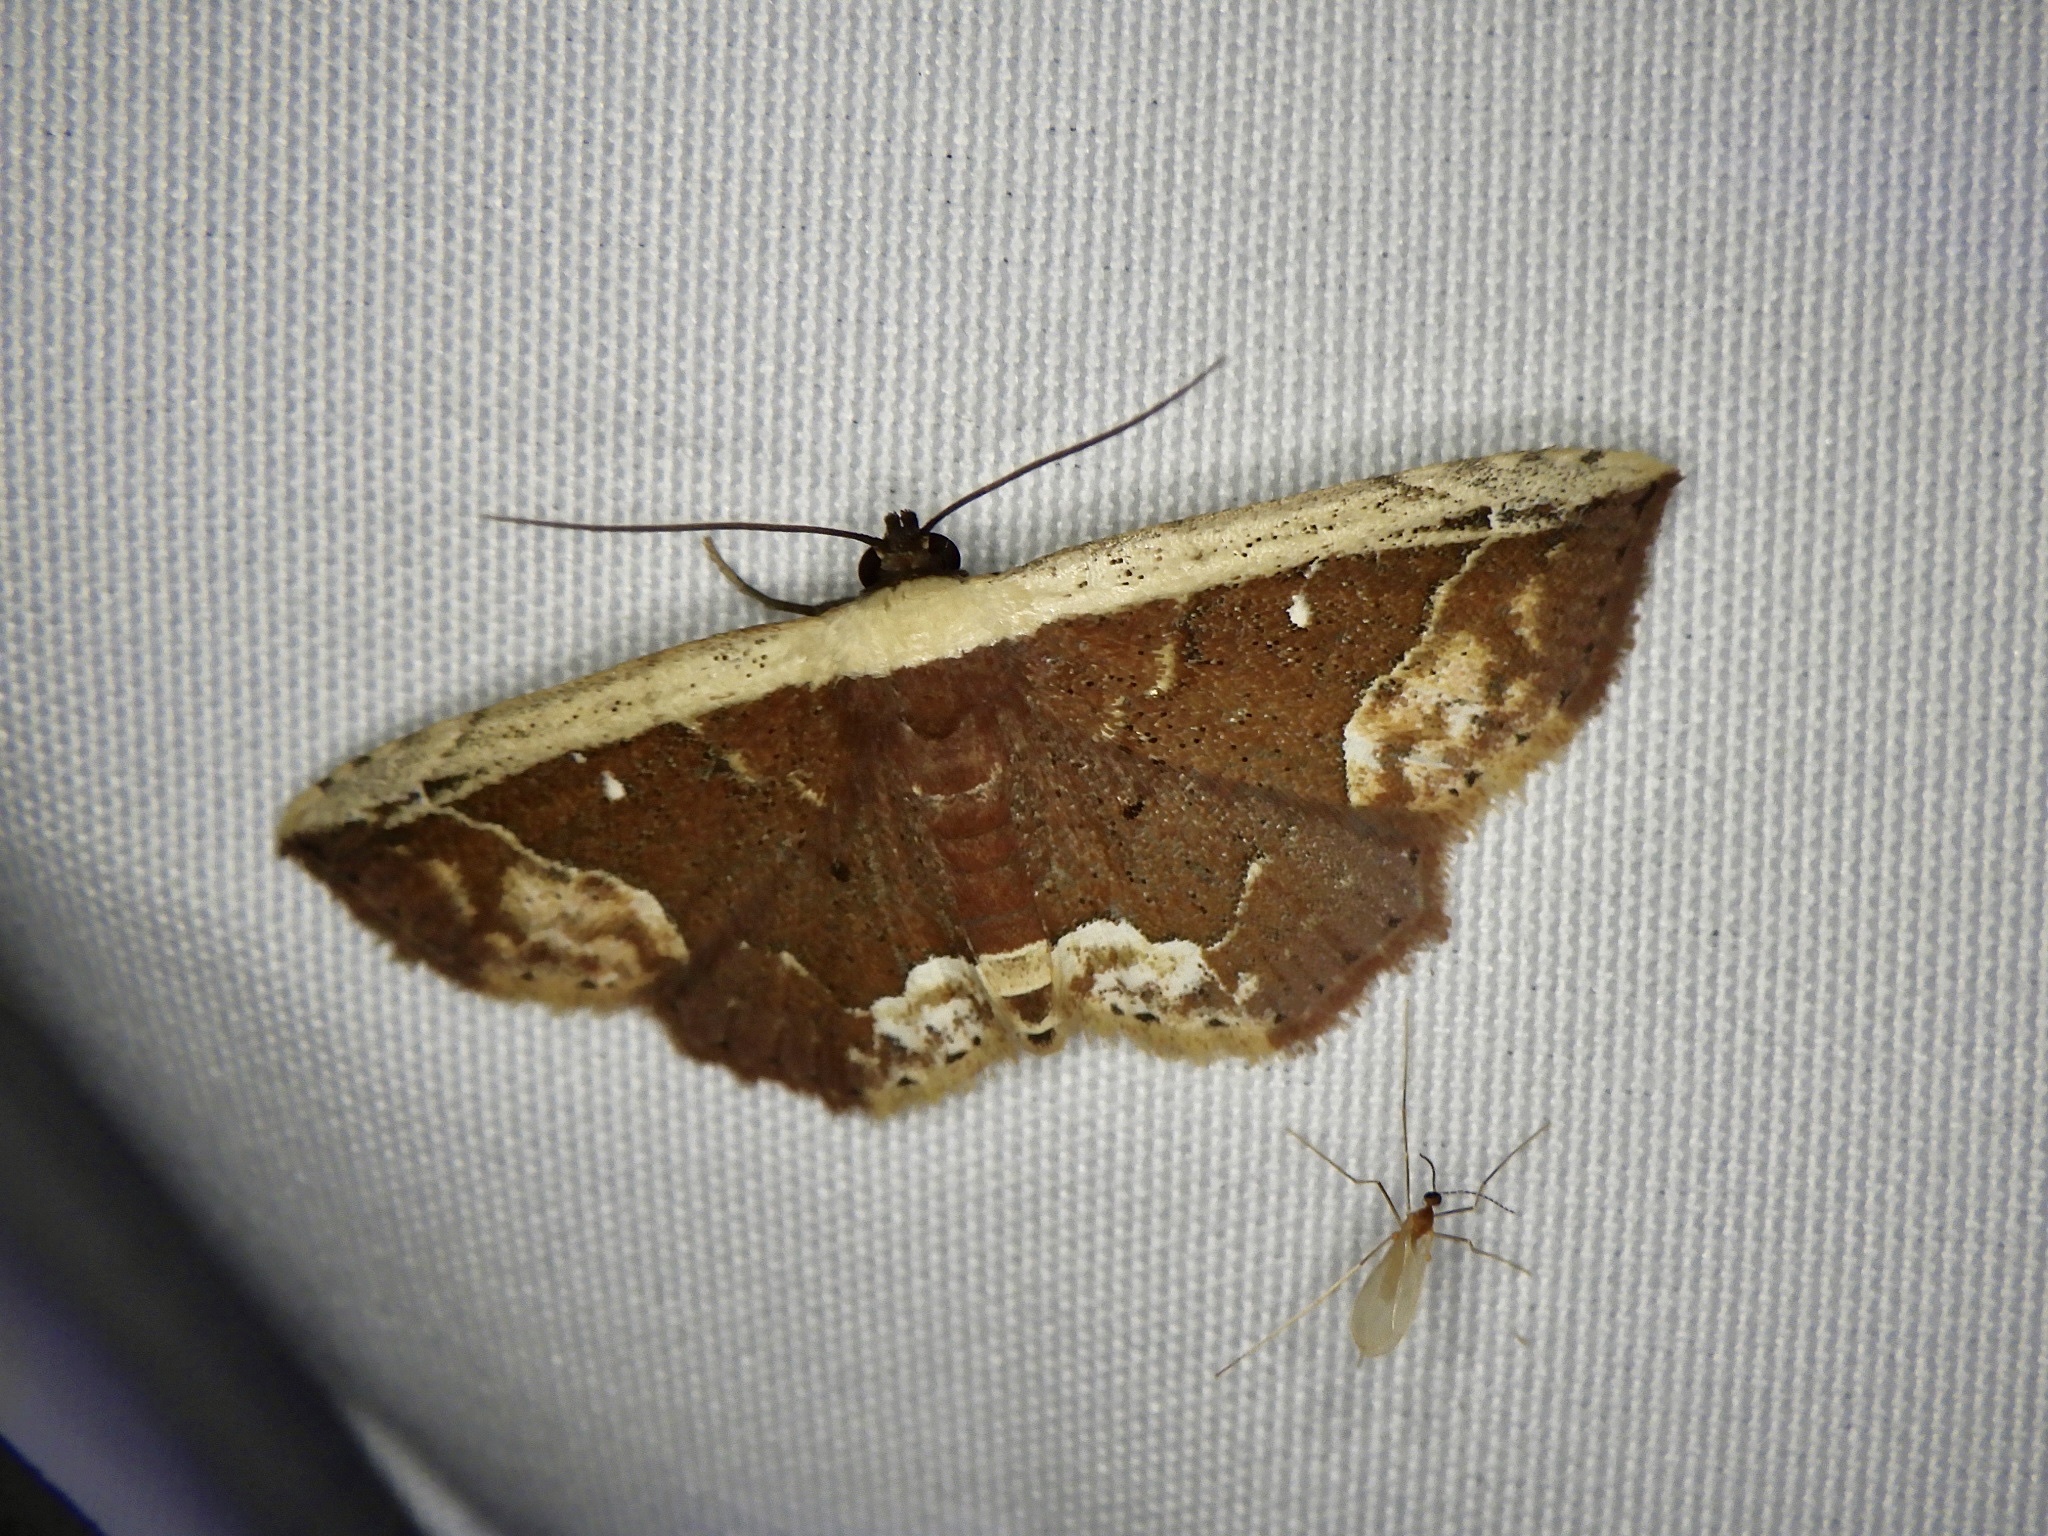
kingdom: Animalia
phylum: Arthropoda
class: Insecta
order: Lepidoptera
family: Noctuidae
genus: Oruza
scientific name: Oruza glaucotorna
